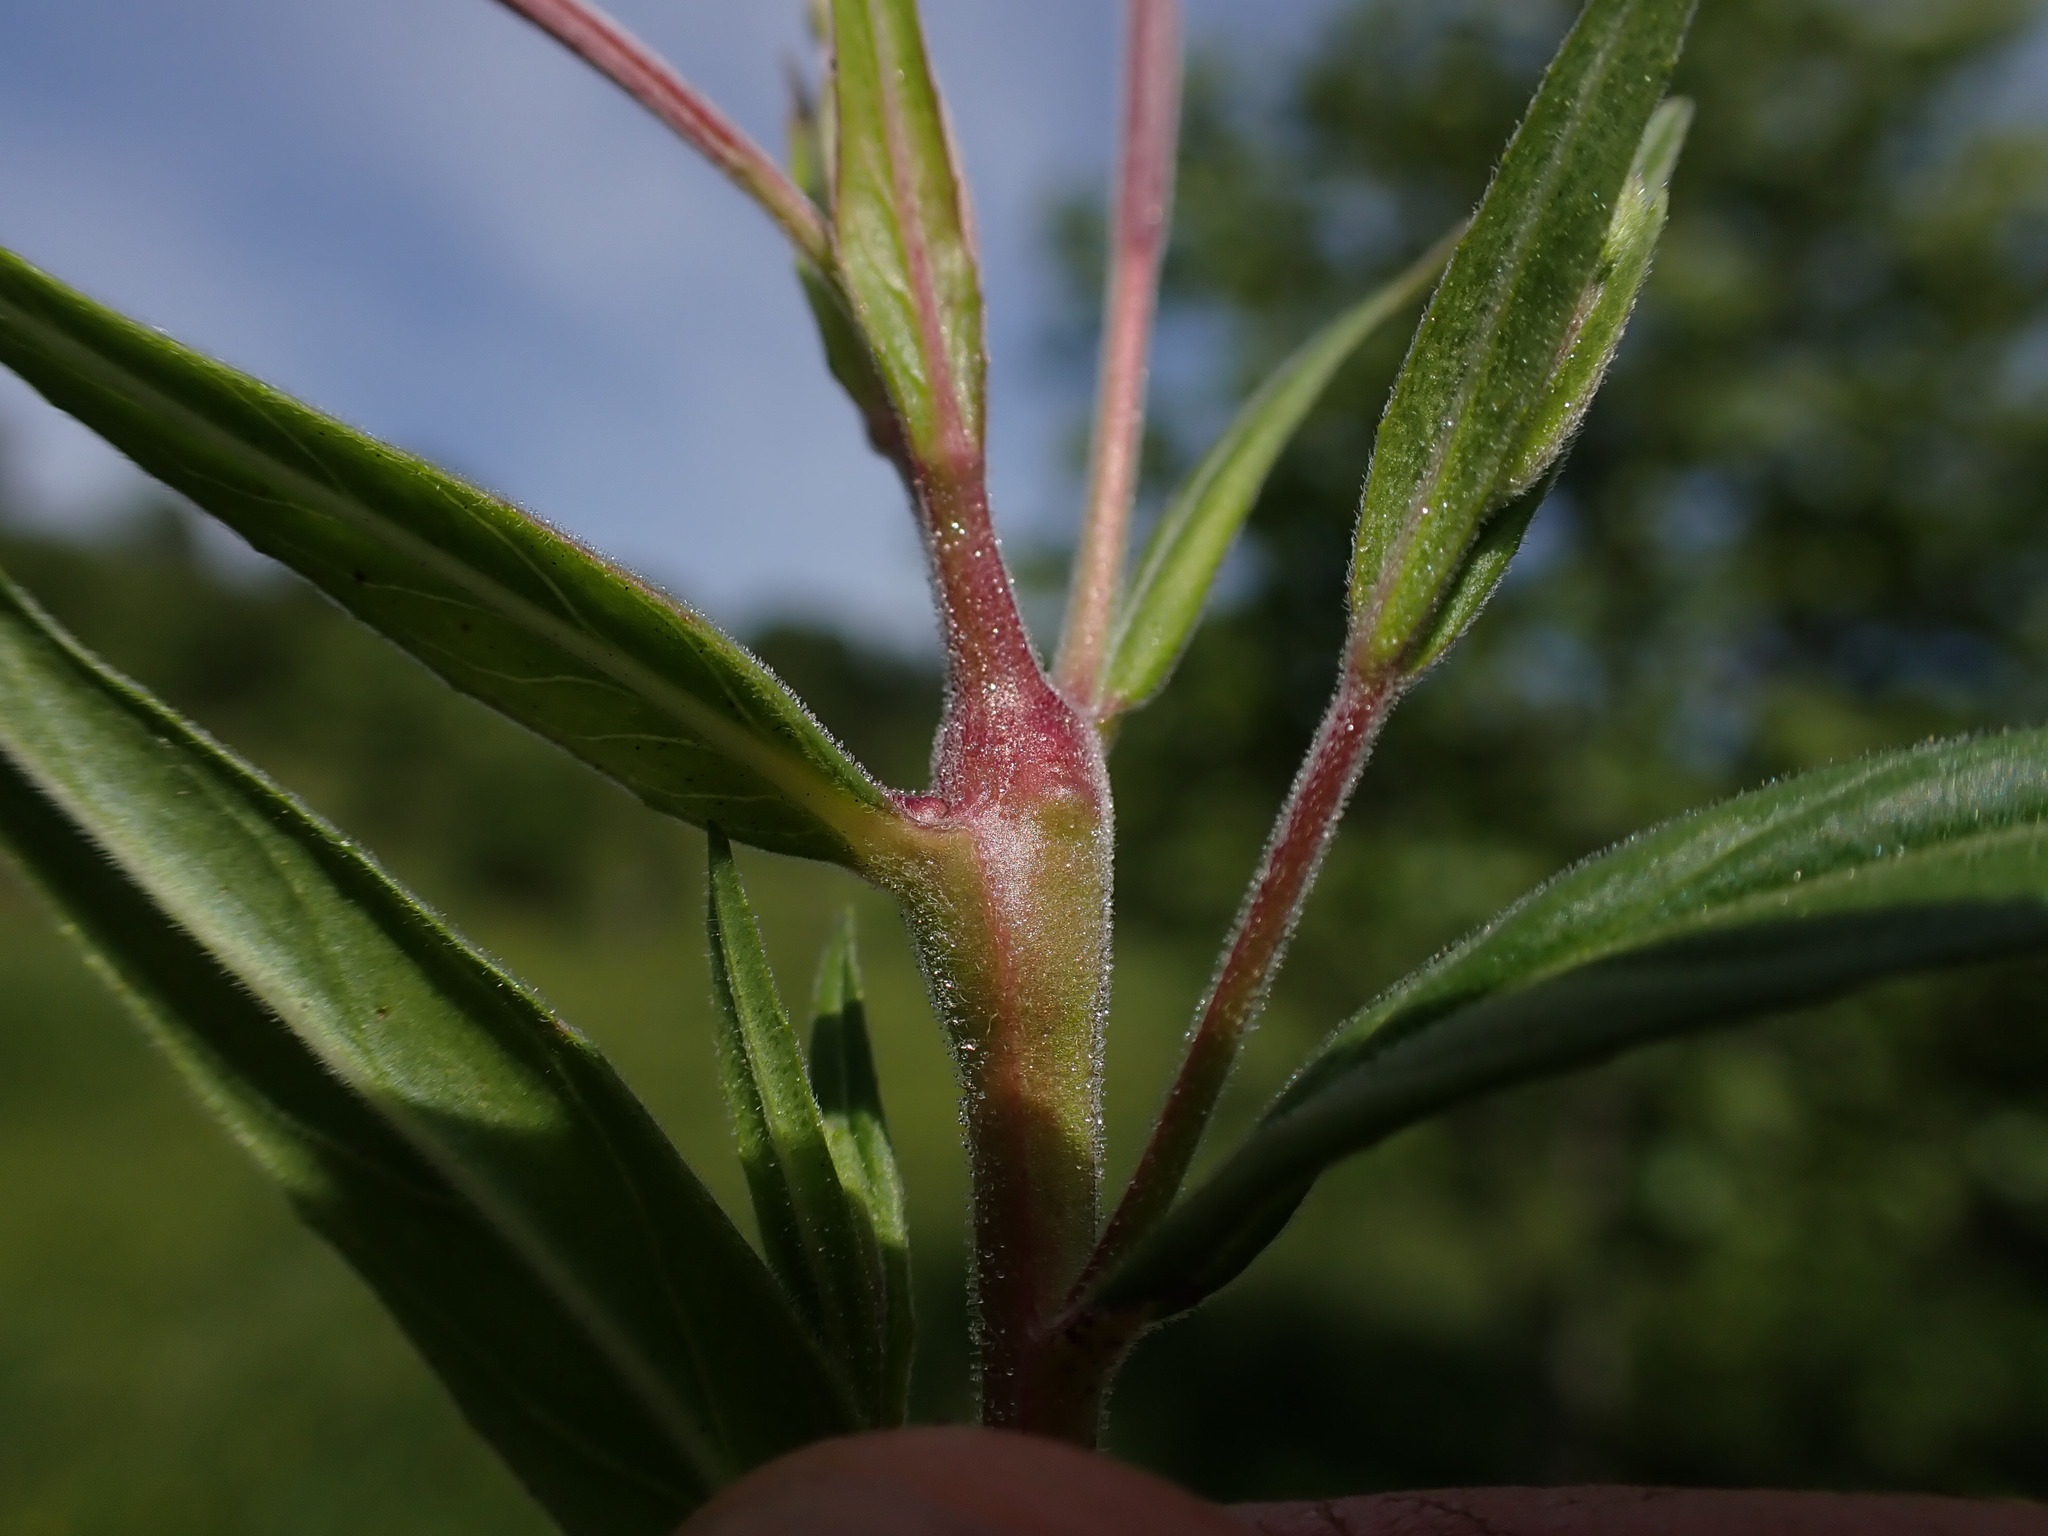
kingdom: Plantae
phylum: Tracheophyta
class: Magnoliopsida
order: Myrtales
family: Onagraceae
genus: Epilobium
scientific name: Epilobium tetragonum
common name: Square-stemmed willowherb
